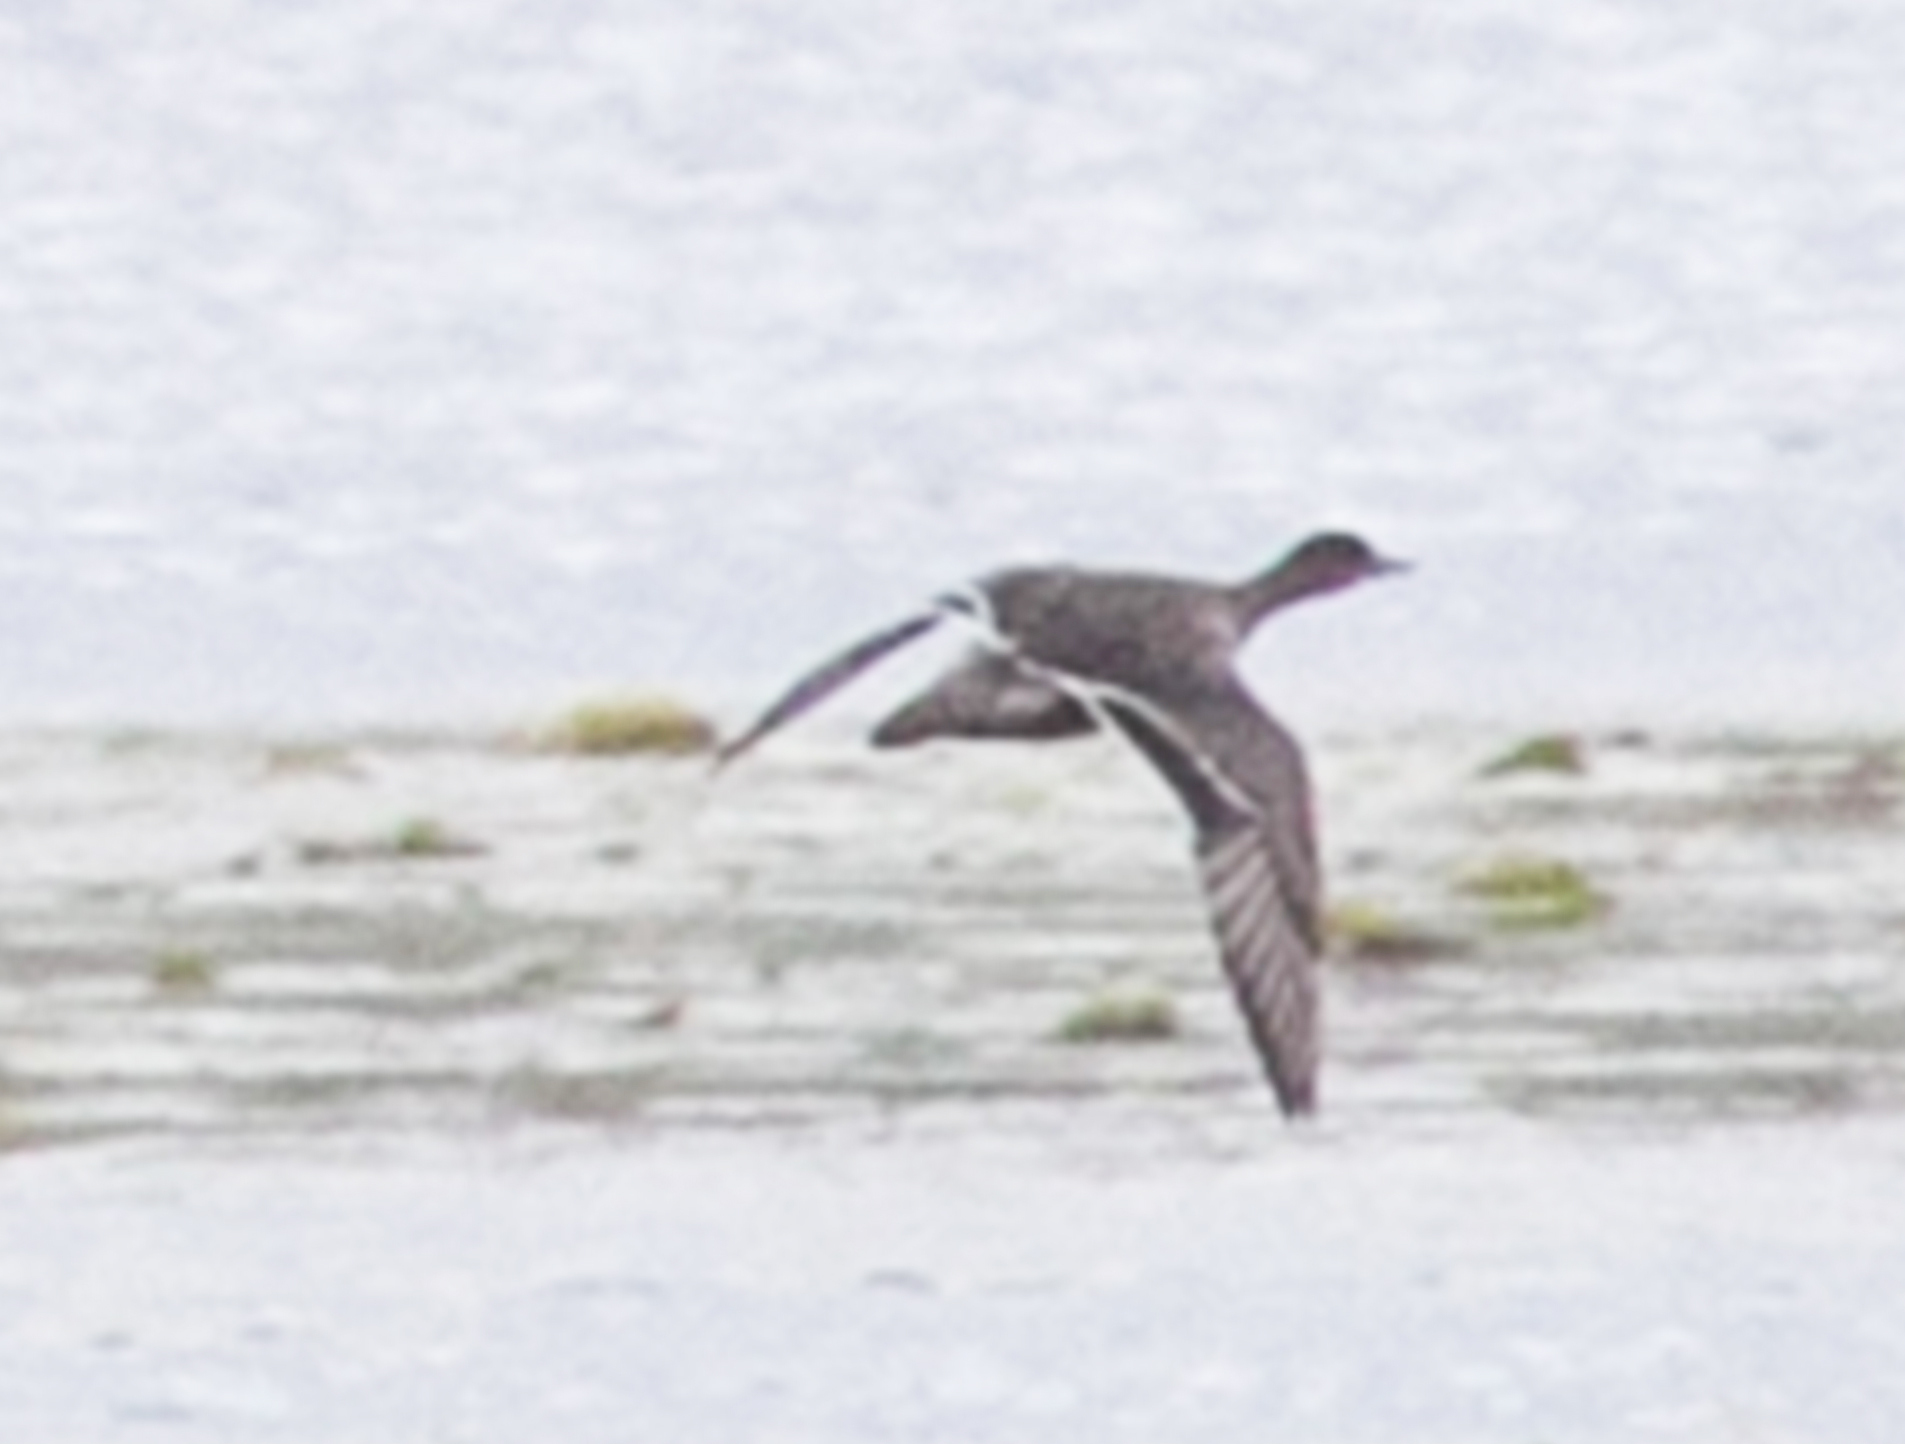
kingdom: Animalia
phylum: Chordata
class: Aves
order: Anseriformes
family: Anatidae
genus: Anas
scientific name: Anas platyrhynchos
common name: Mallard
